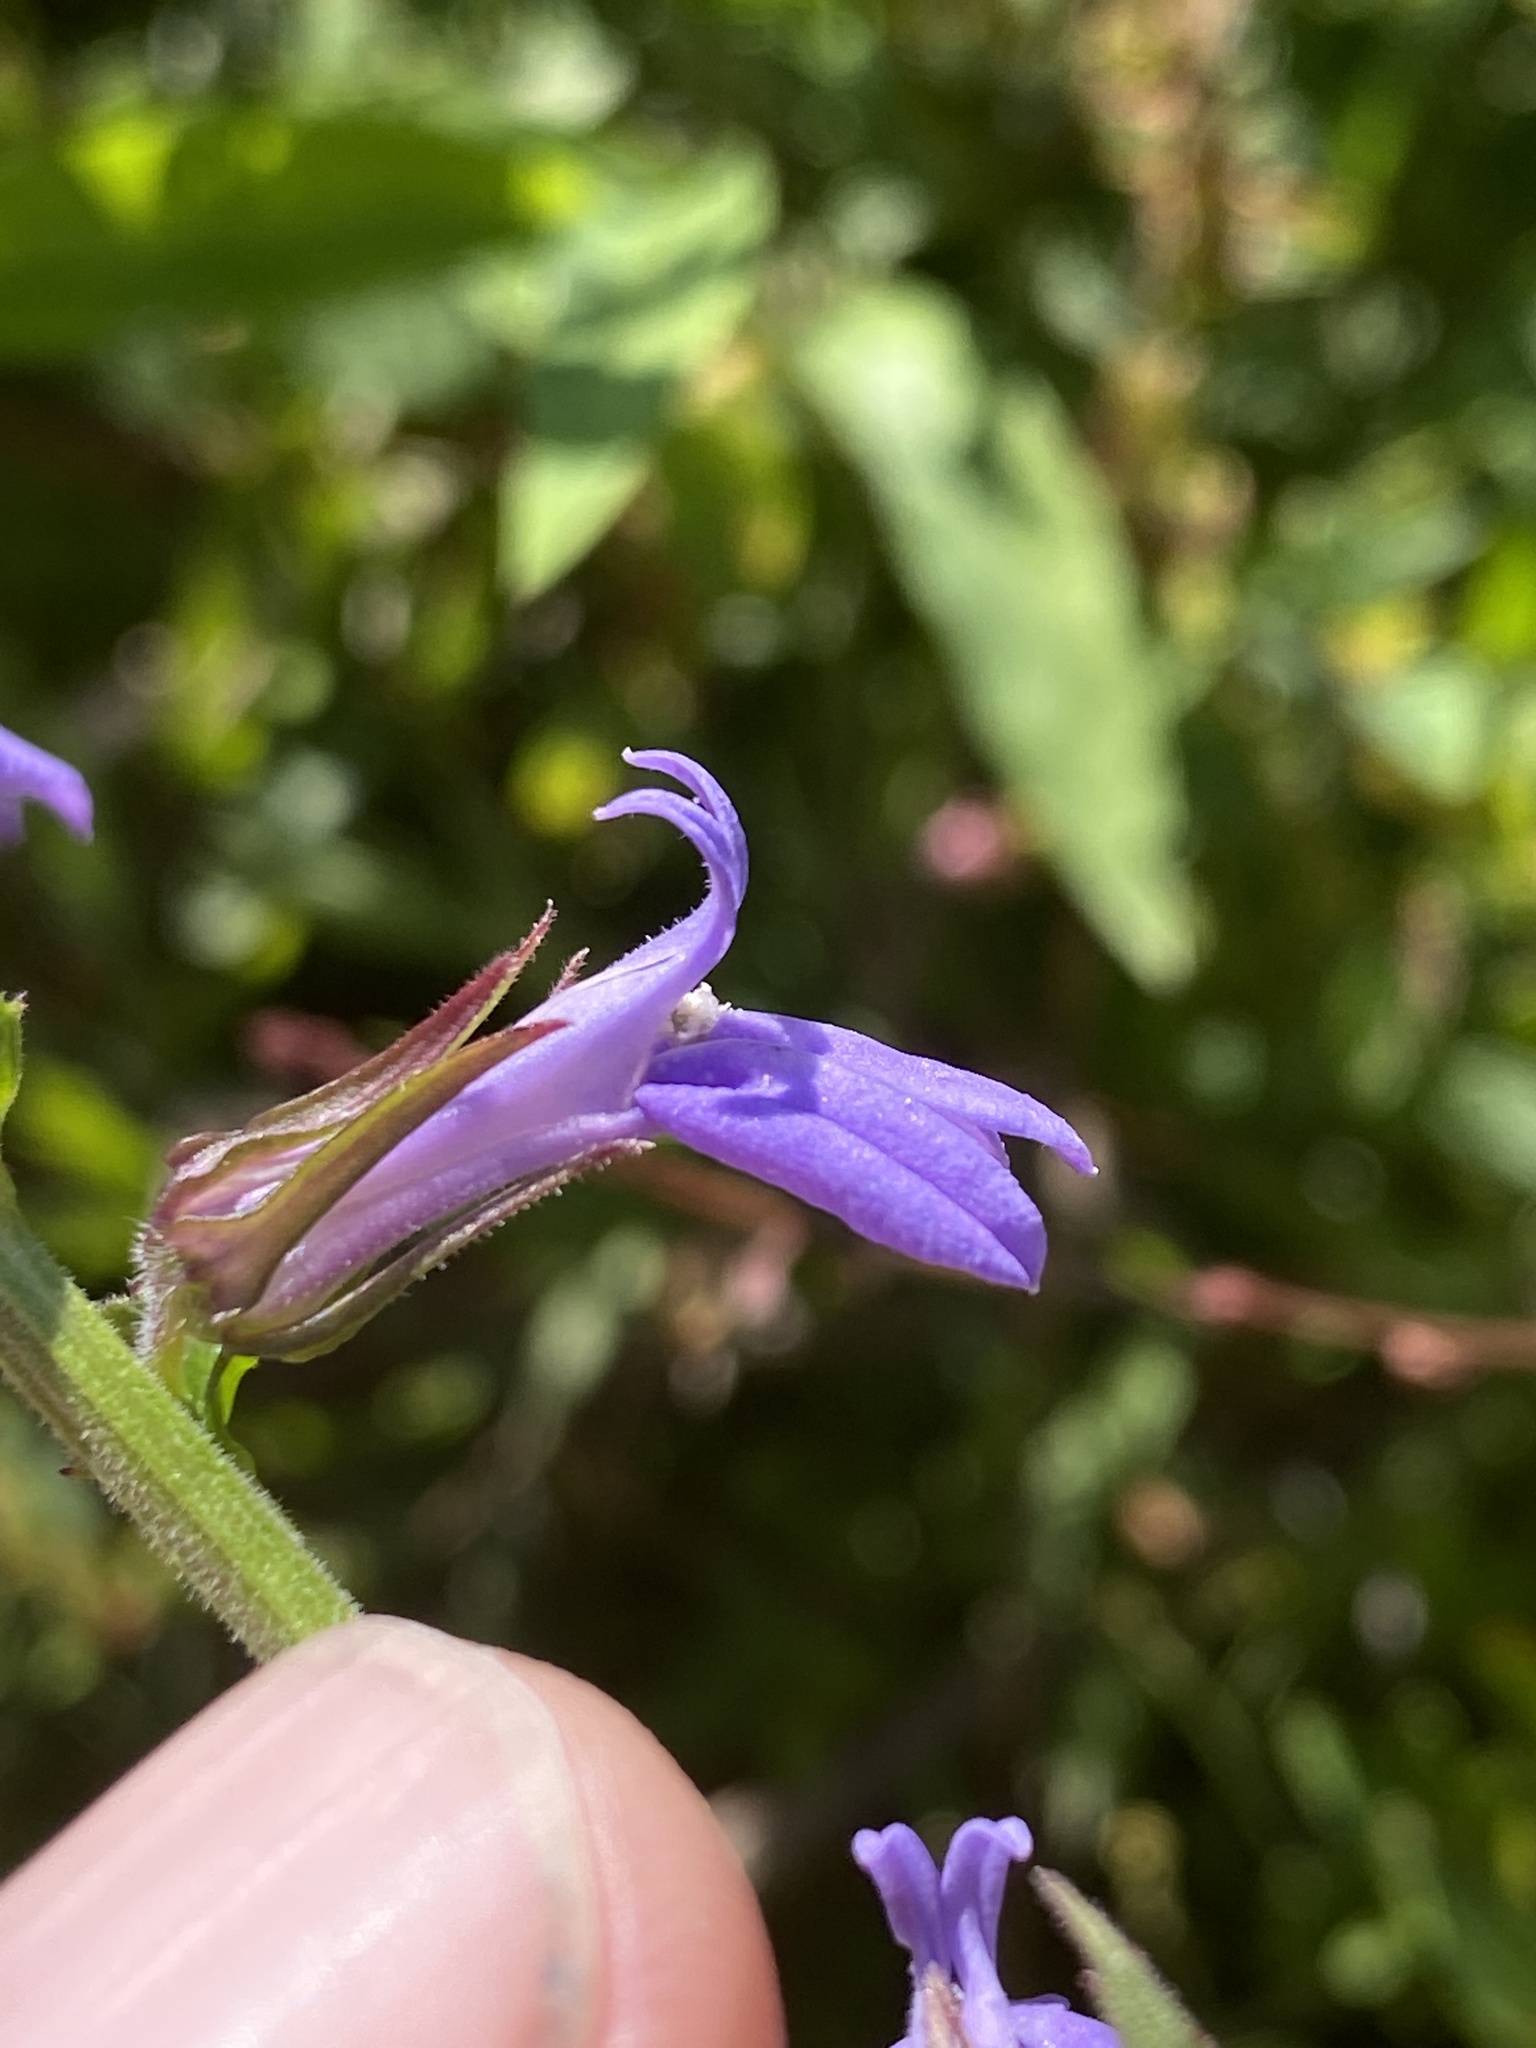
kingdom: Plantae
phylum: Tracheophyta
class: Magnoliopsida
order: Asterales
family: Campanulaceae
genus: Lobelia
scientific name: Lobelia puberula
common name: Purple dewdrop
